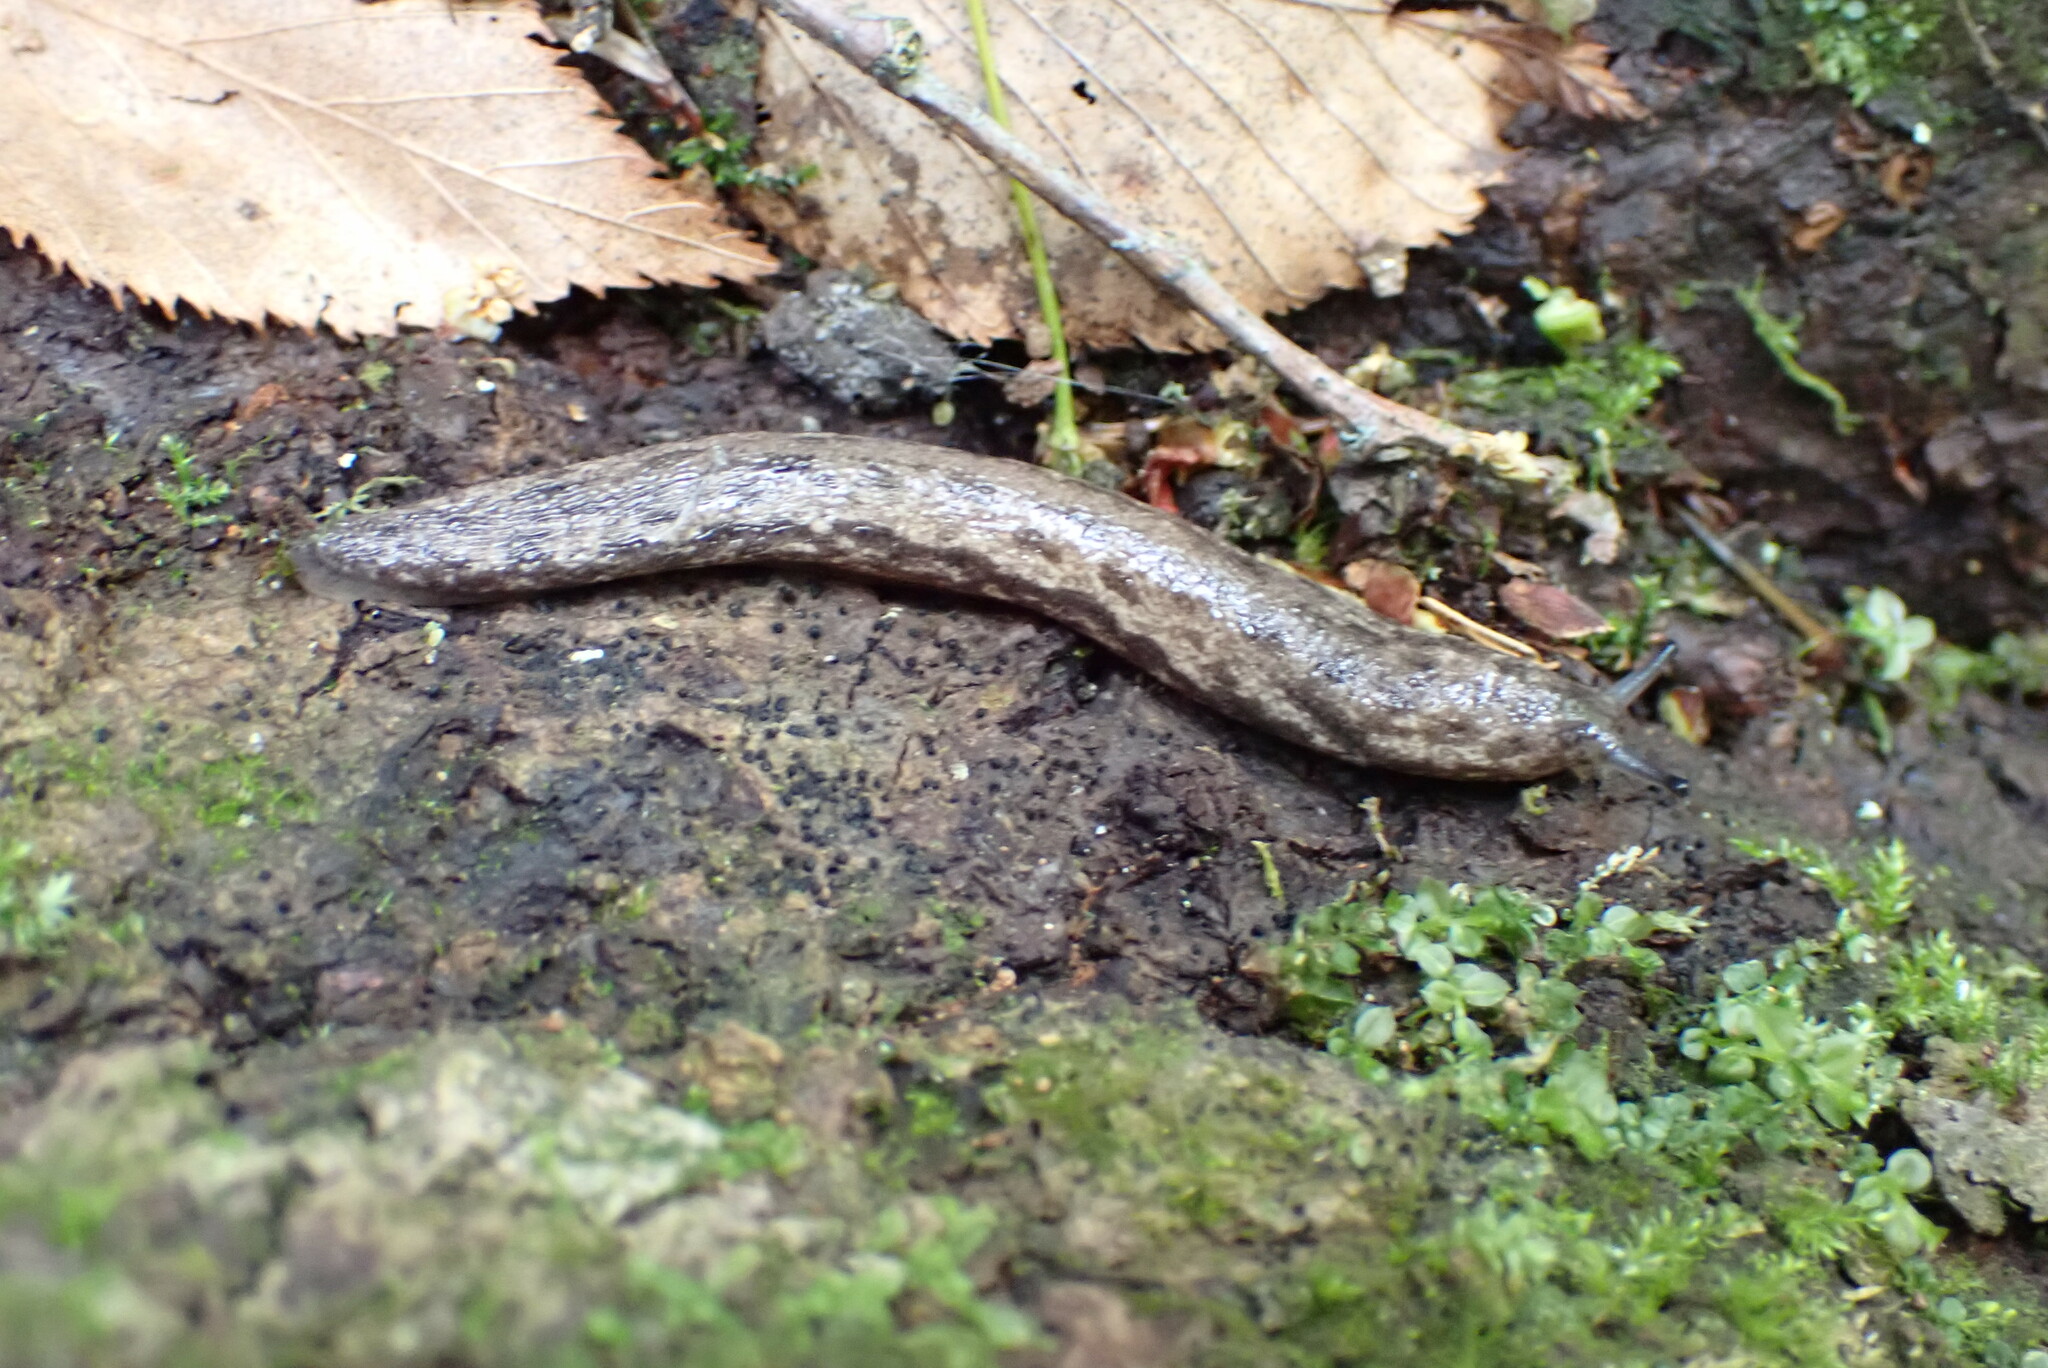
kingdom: Animalia
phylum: Mollusca
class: Gastropoda
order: Stylommatophora
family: Philomycidae
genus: Megapallifera
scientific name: Megapallifera mutabilis
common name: Changeable mantleslug
